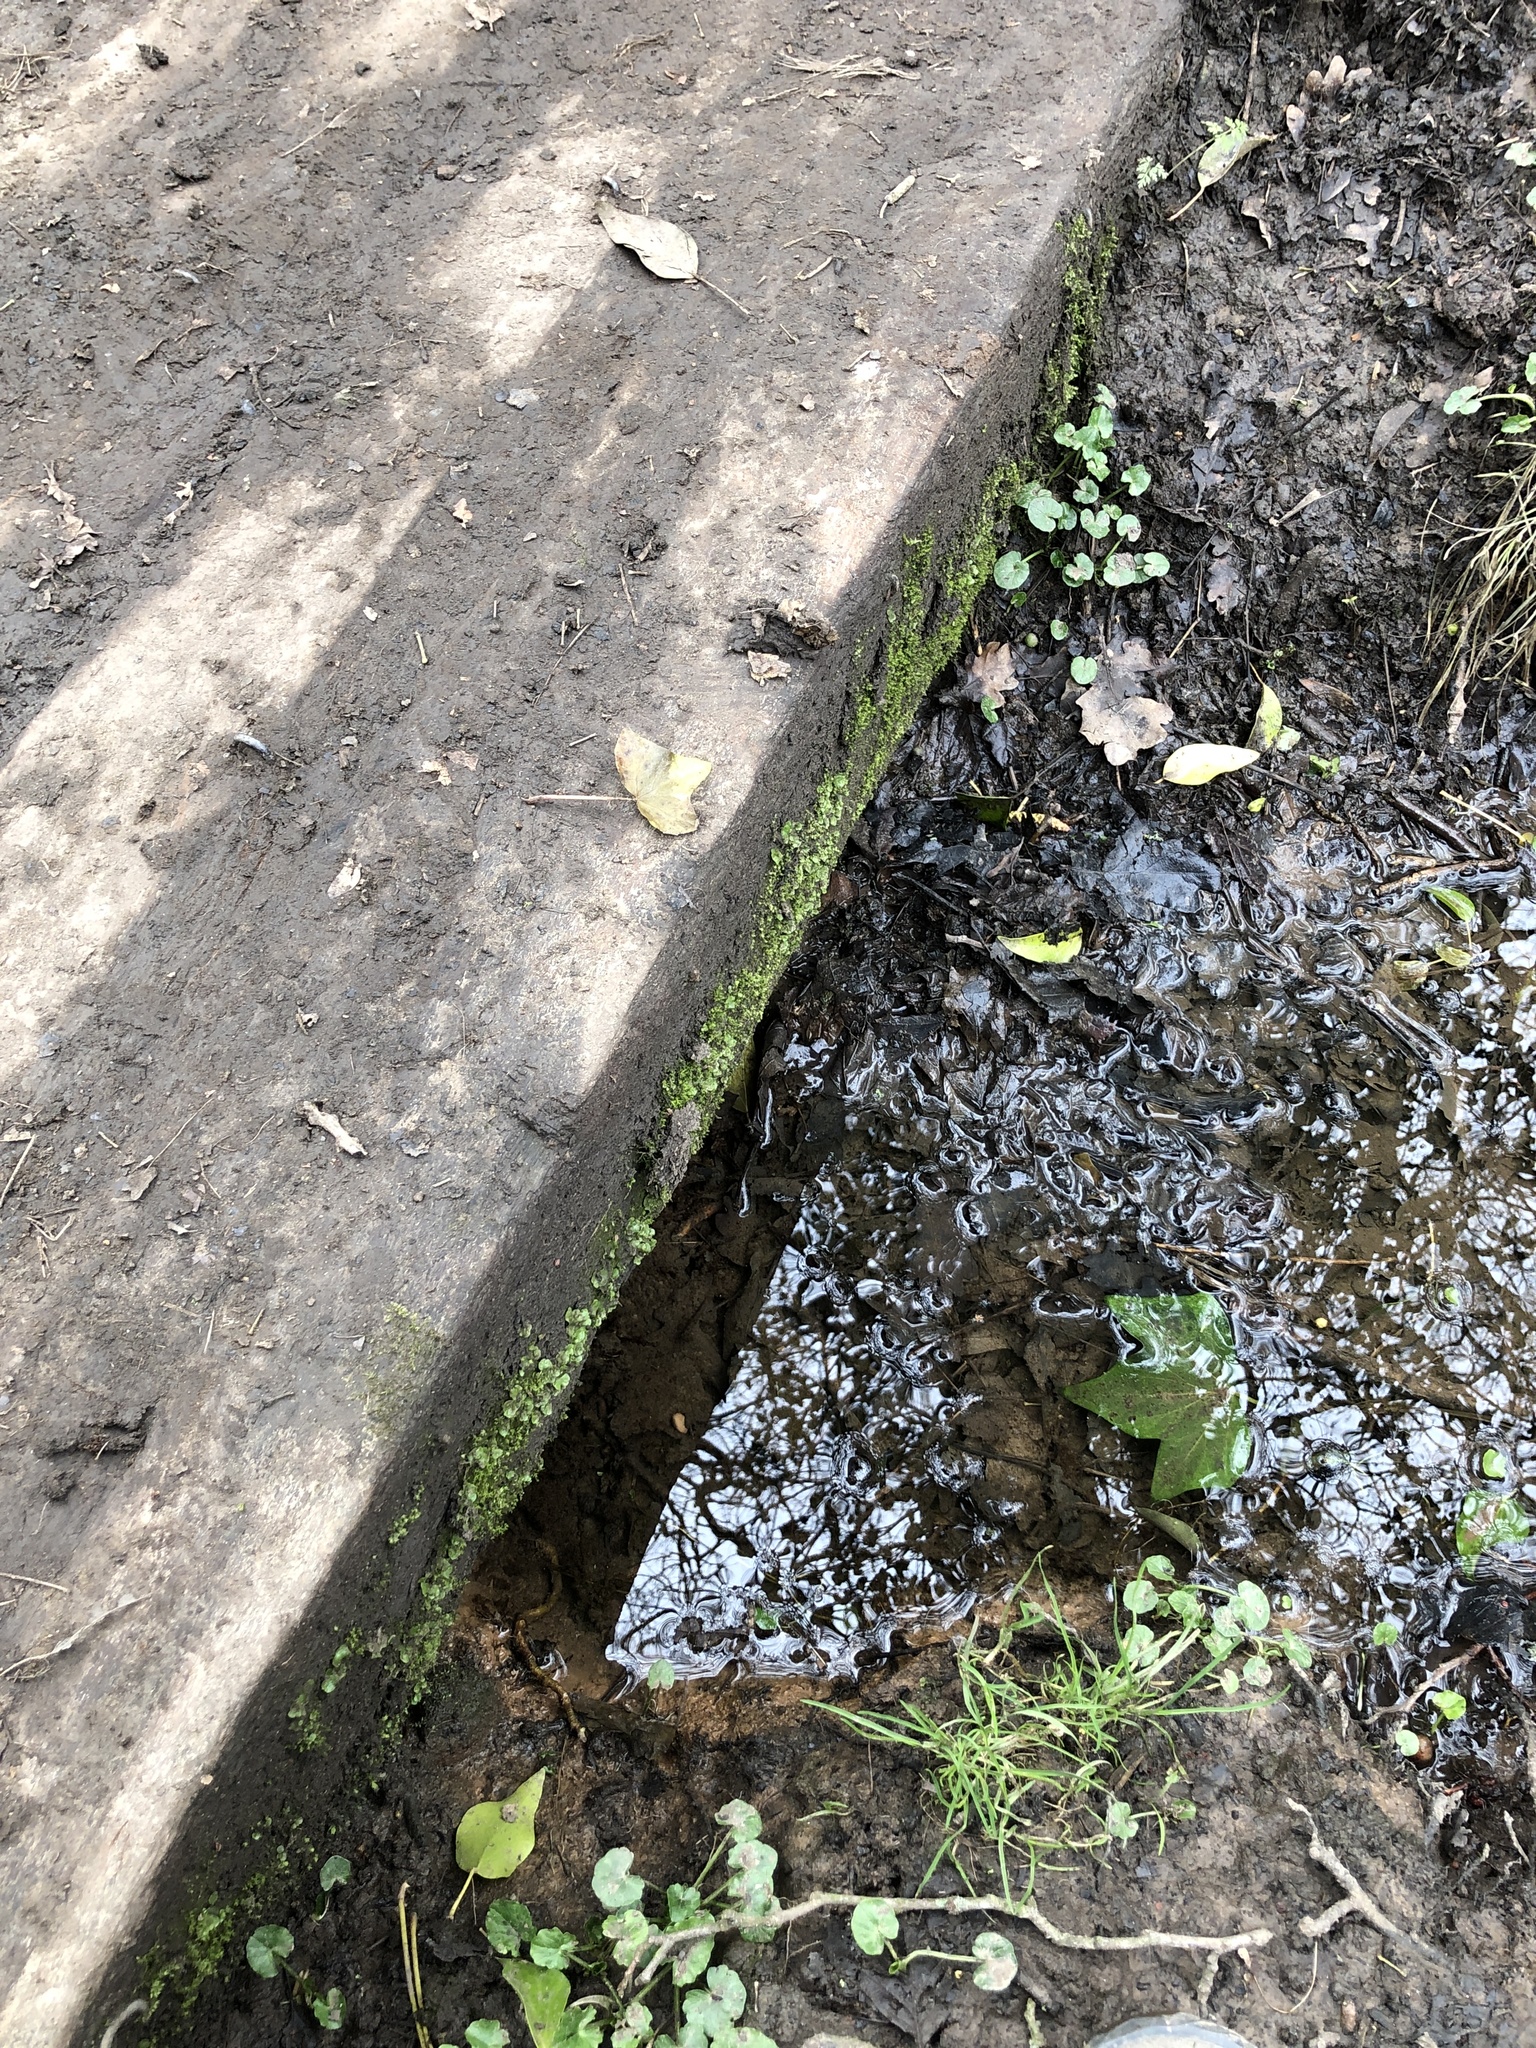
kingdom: Plantae
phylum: Marchantiophyta
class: Marchantiopsida
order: Lunulariales
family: Lunulariaceae
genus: Lunularia
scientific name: Lunularia cruciata
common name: Crescent-cup liverwort
